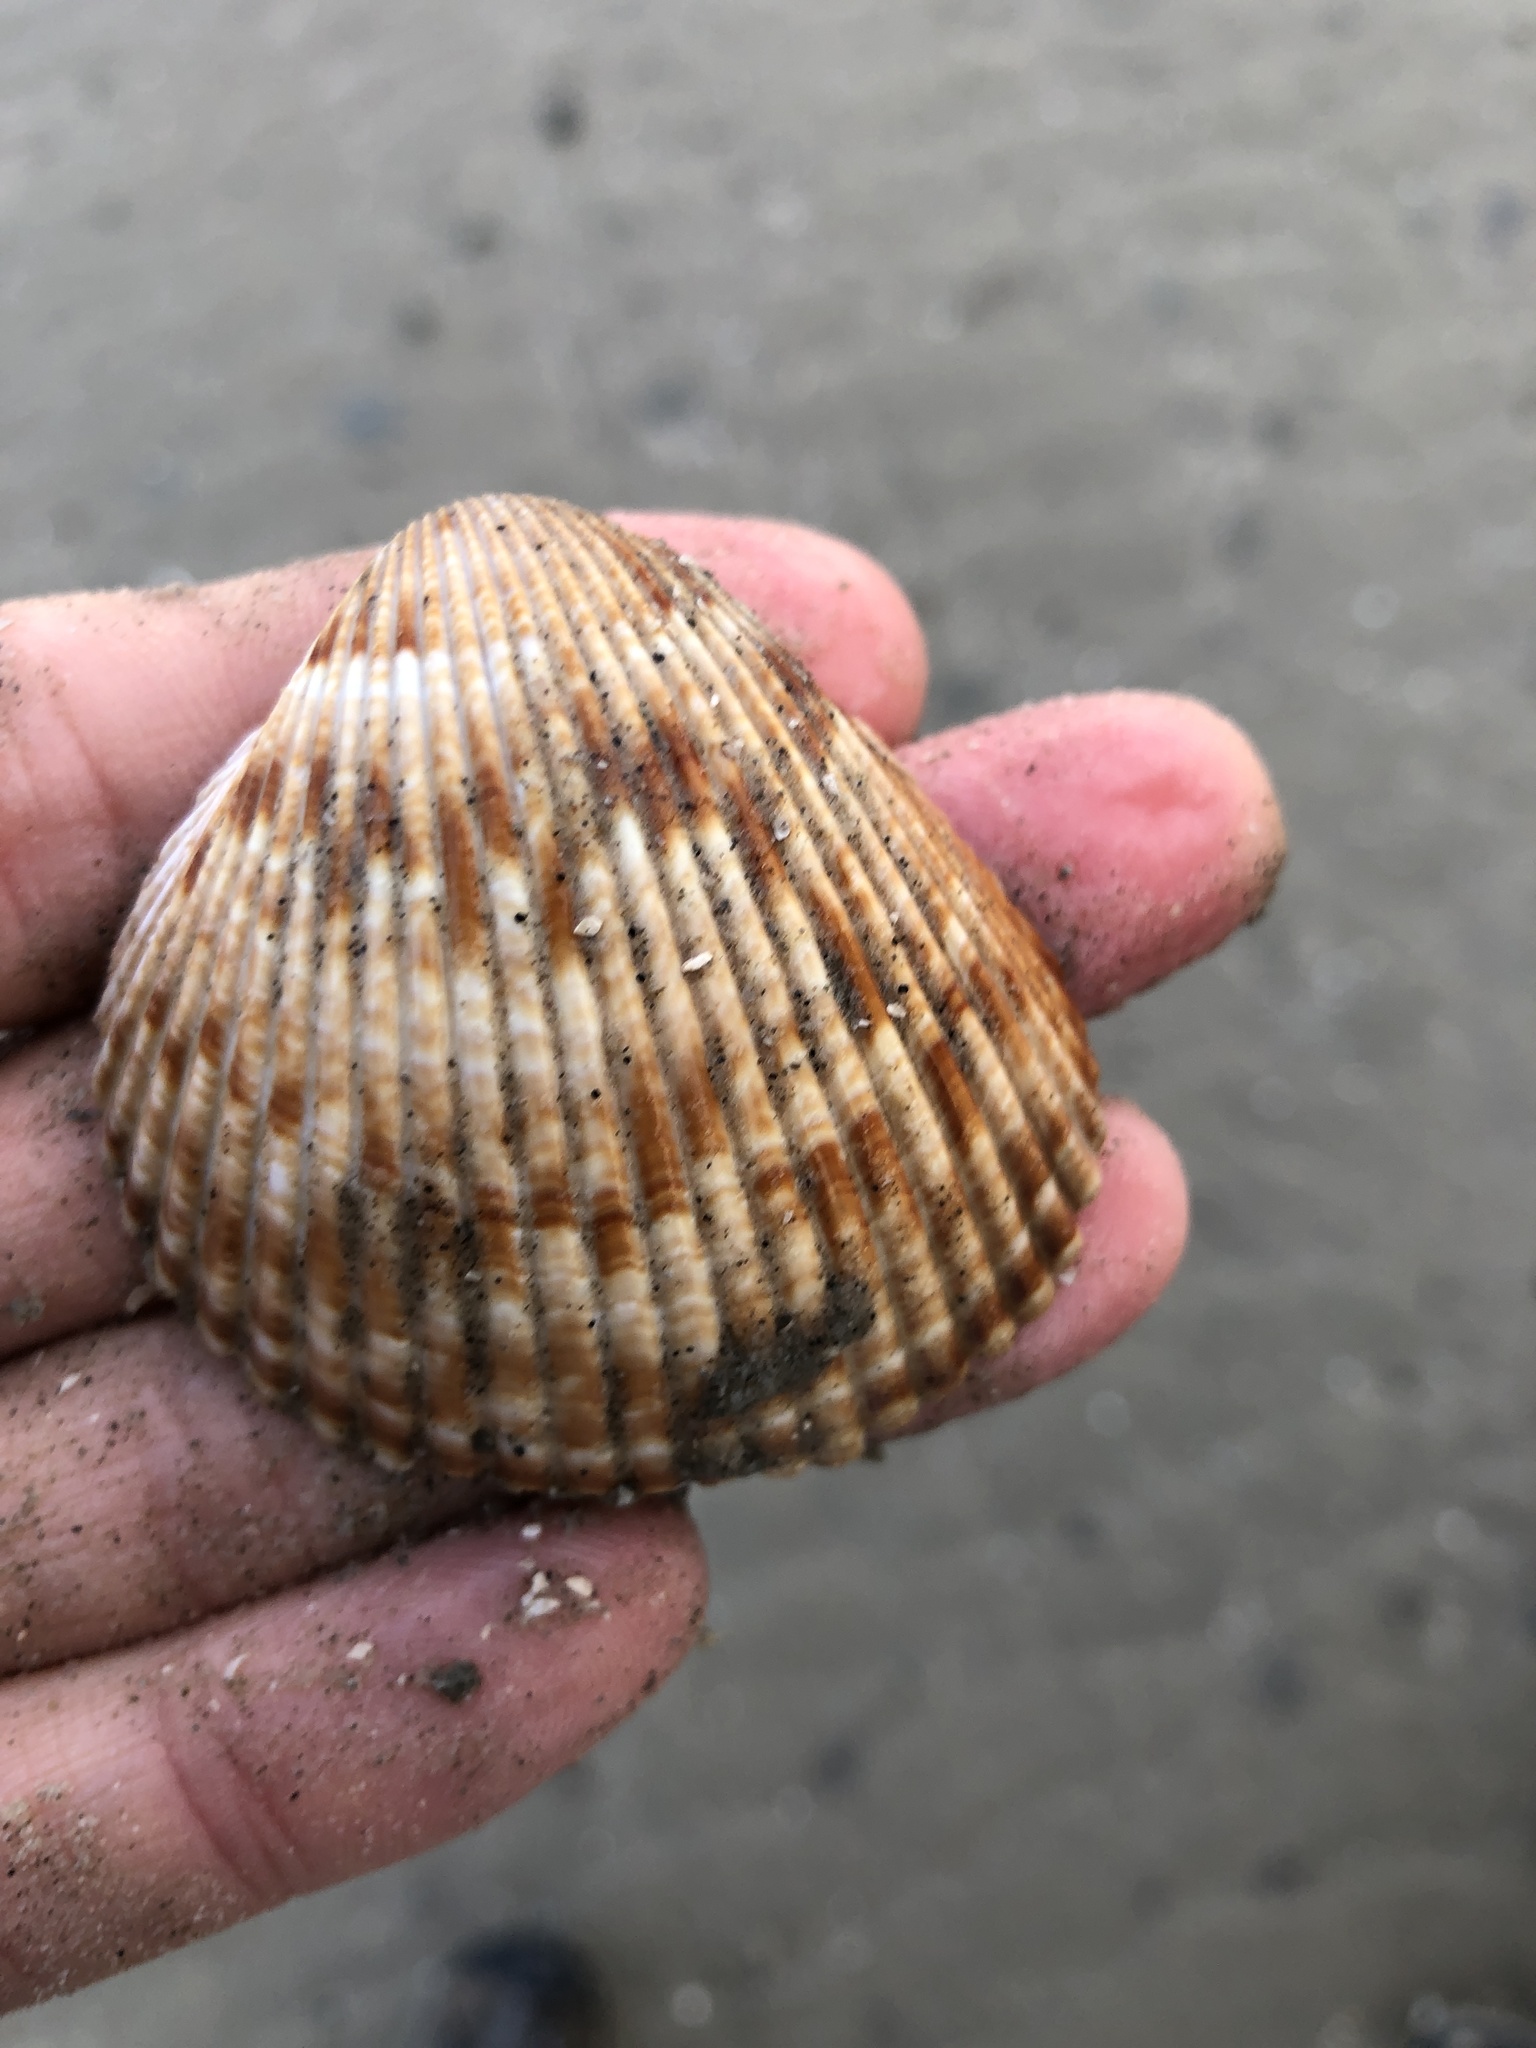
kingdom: Animalia
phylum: Mollusca
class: Bivalvia
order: Cardiida
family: Cardiidae
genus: Dinocardium
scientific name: Dinocardium robustum
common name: Atlantic giant cockle
